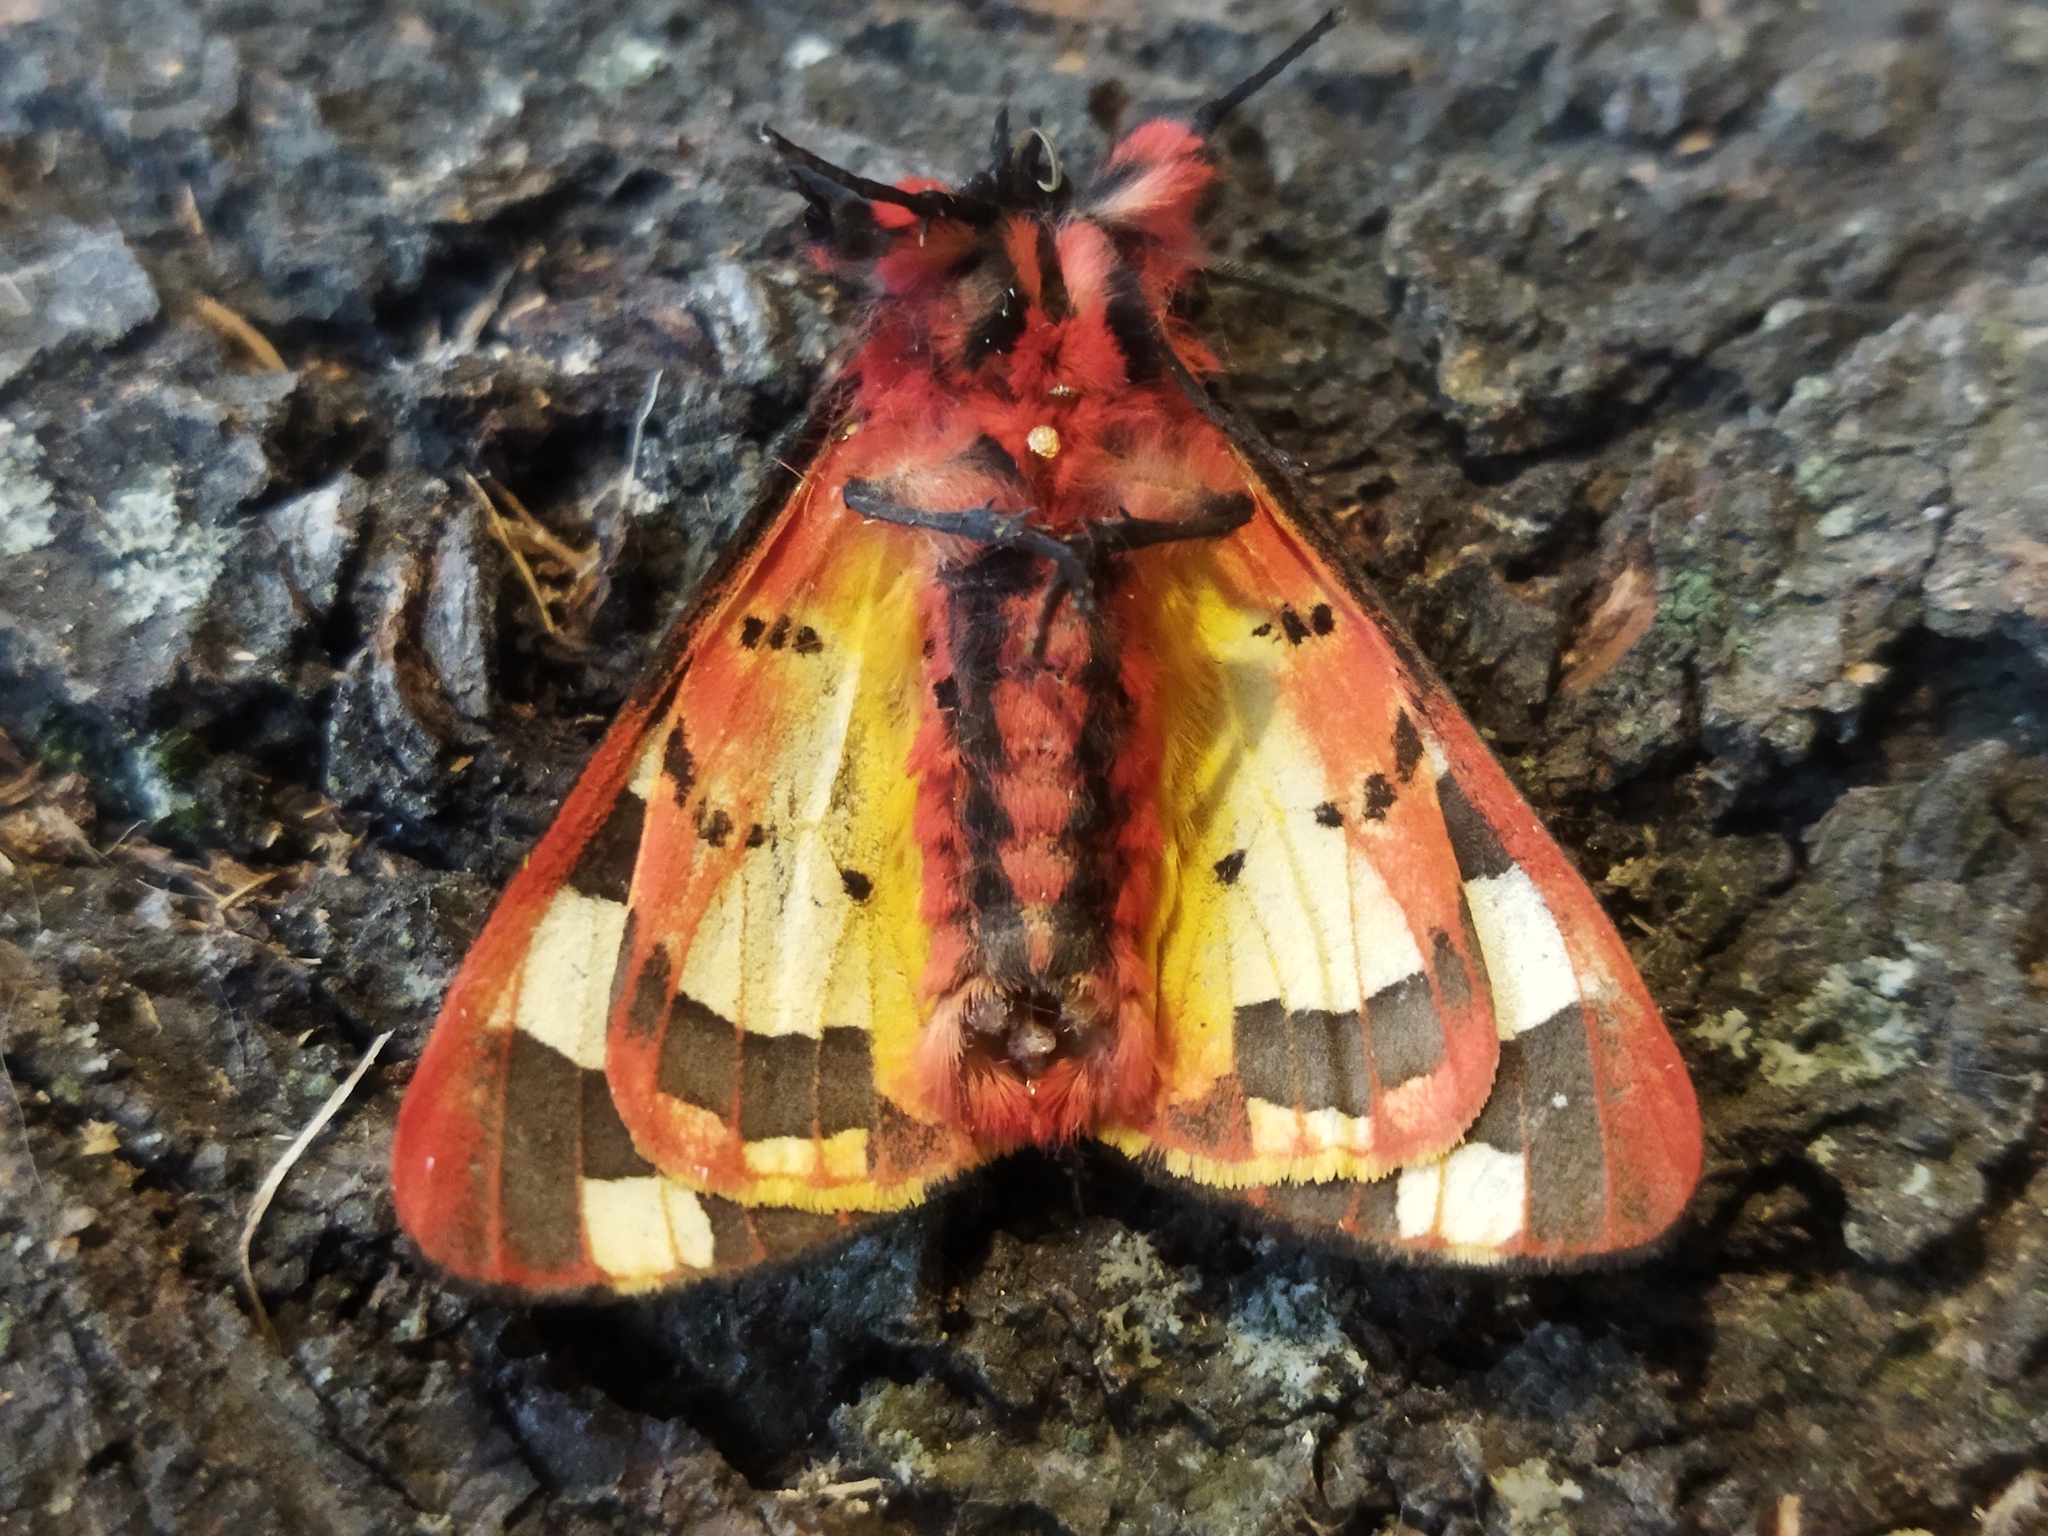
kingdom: Animalia
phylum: Arthropoda
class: Insecta
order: Lepidoptera
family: Erebidae
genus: Epicallia
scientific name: Epicallia villica
